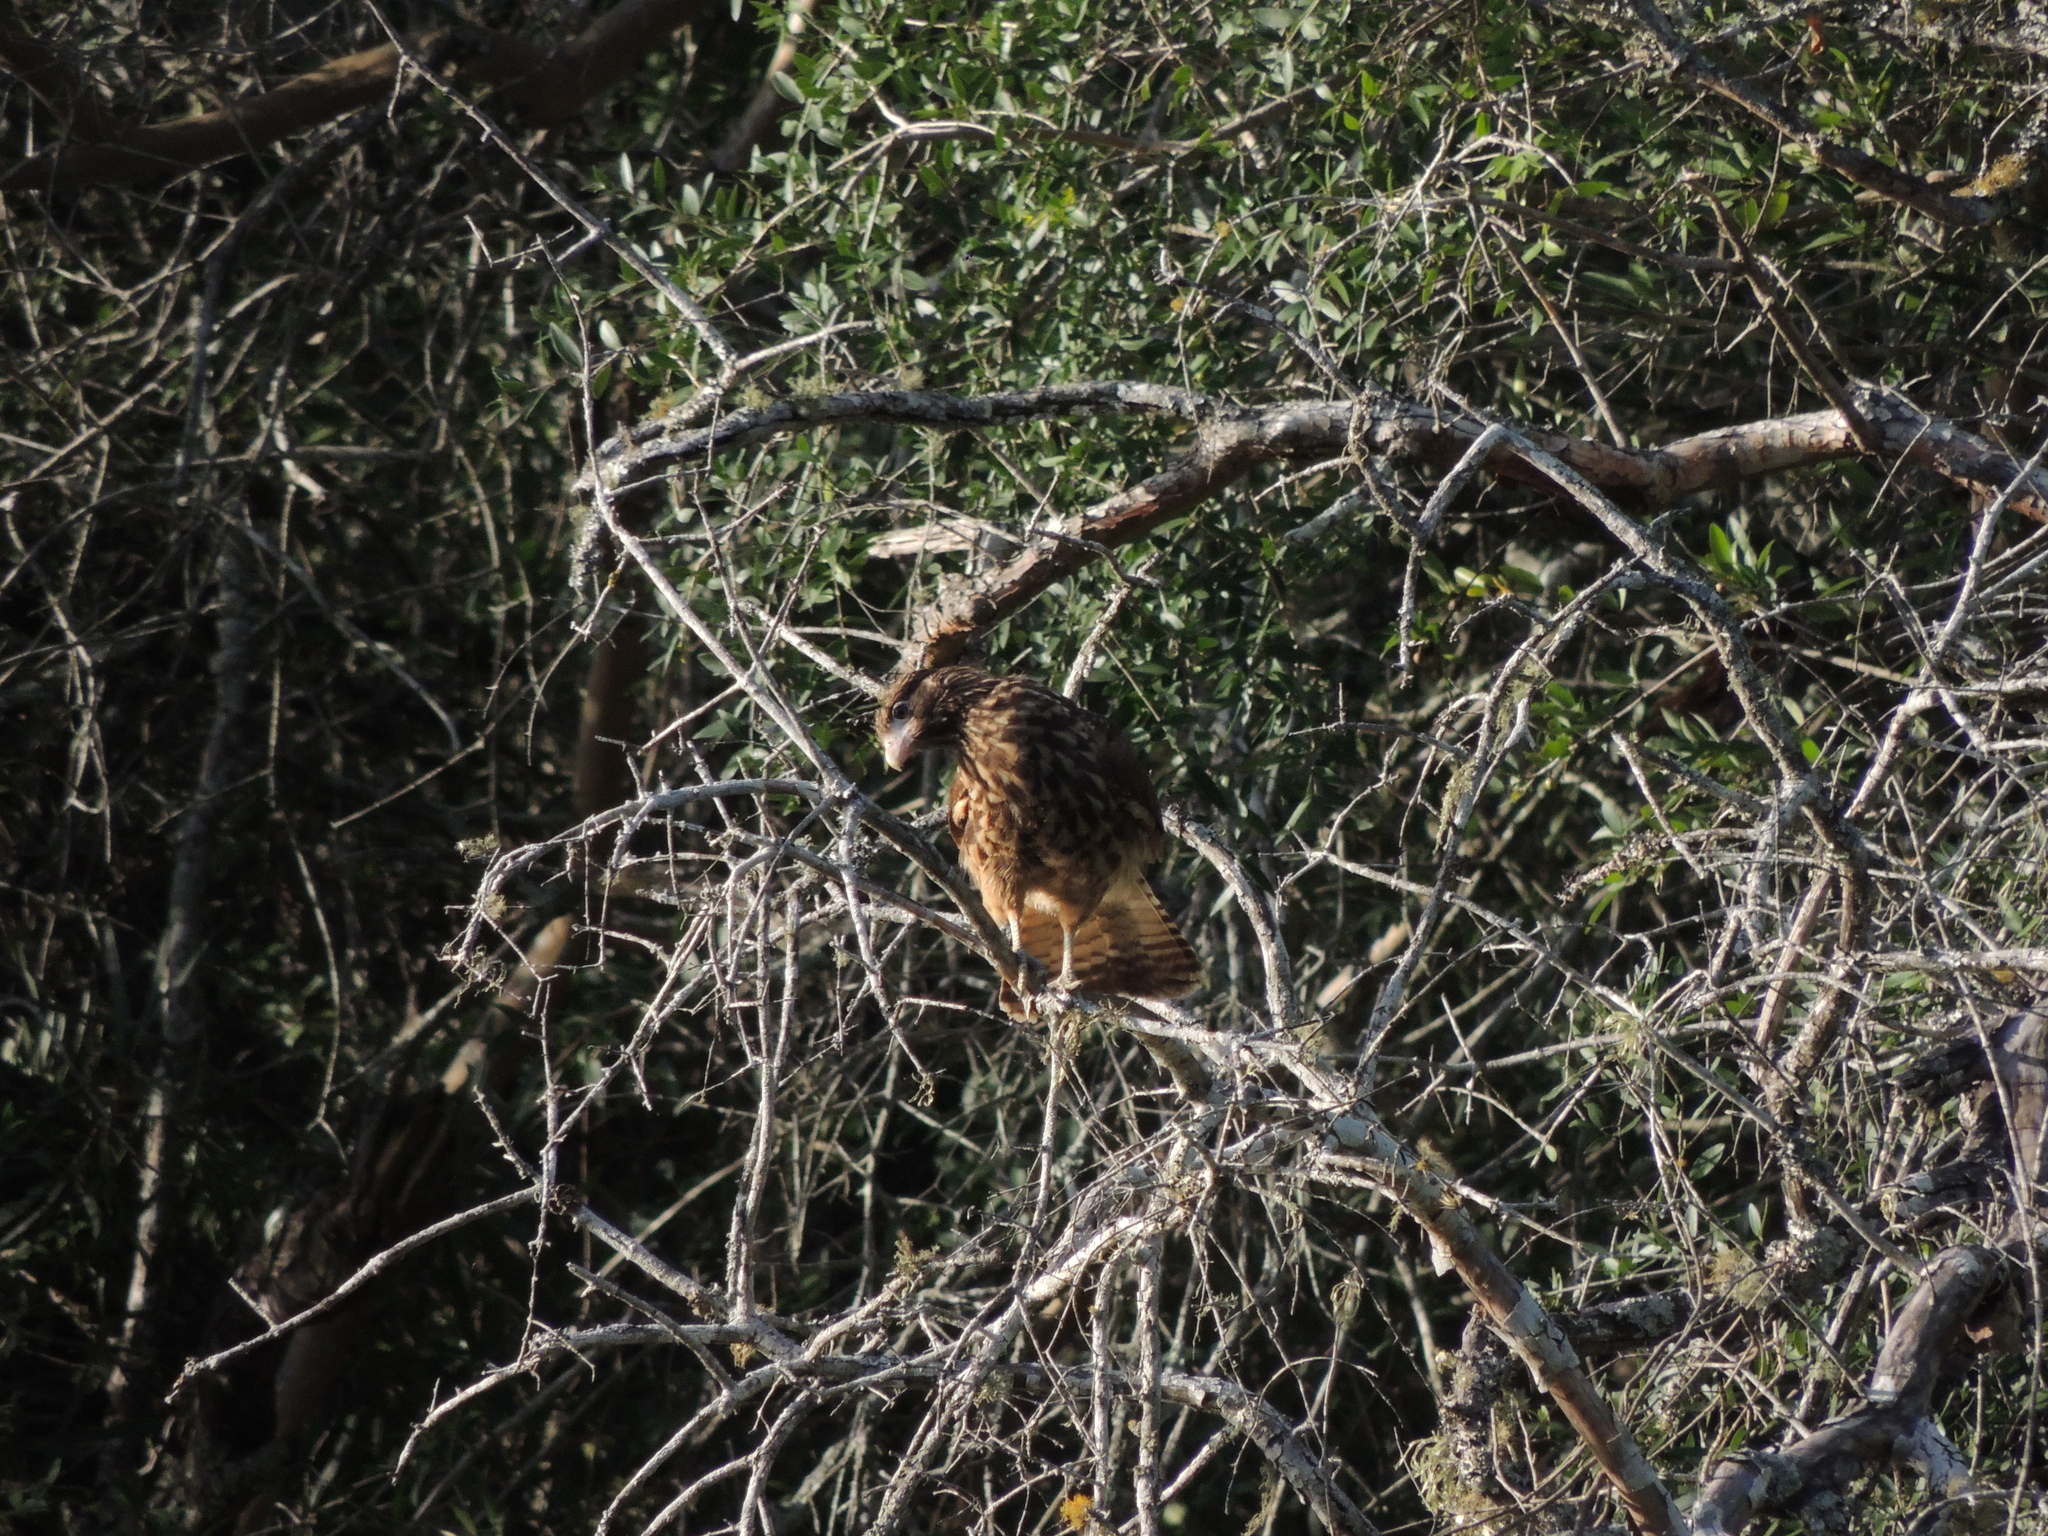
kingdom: Animalia
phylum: Chordata
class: Aves
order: Falconiformes
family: Falconidae
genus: Daptrius
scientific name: Daptrius
